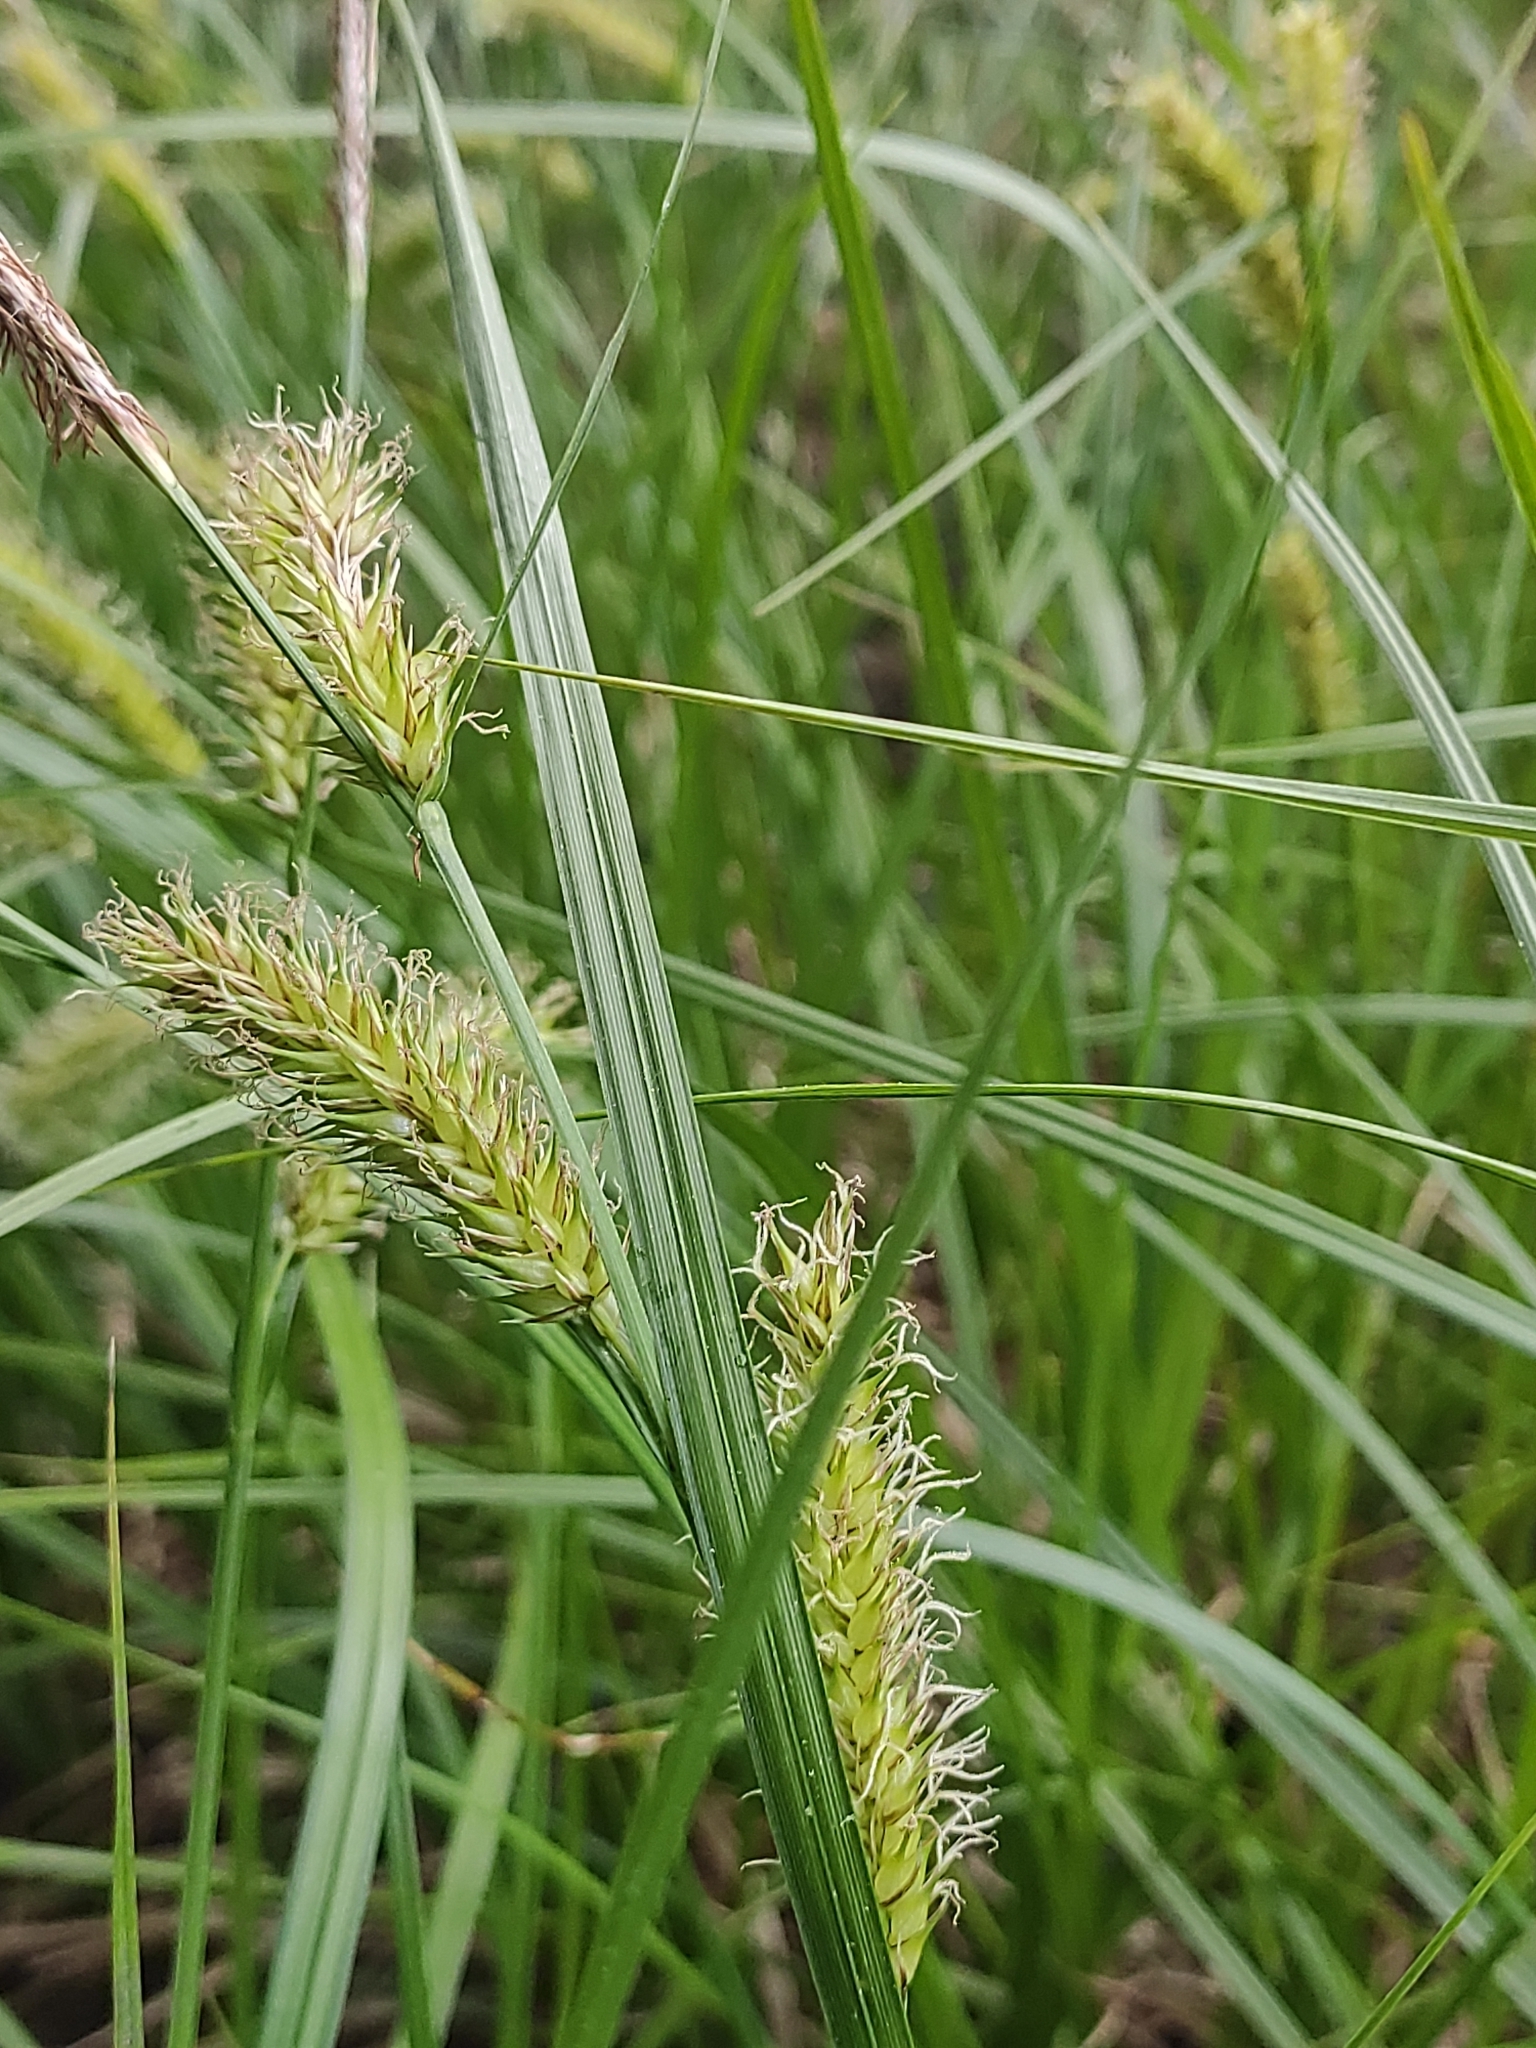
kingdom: Plantae
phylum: Tracheophyta
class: Liliopsida
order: Poales
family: Cyperaceae
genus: Carex
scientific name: Carex vesicaria
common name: Bladder-sedge
